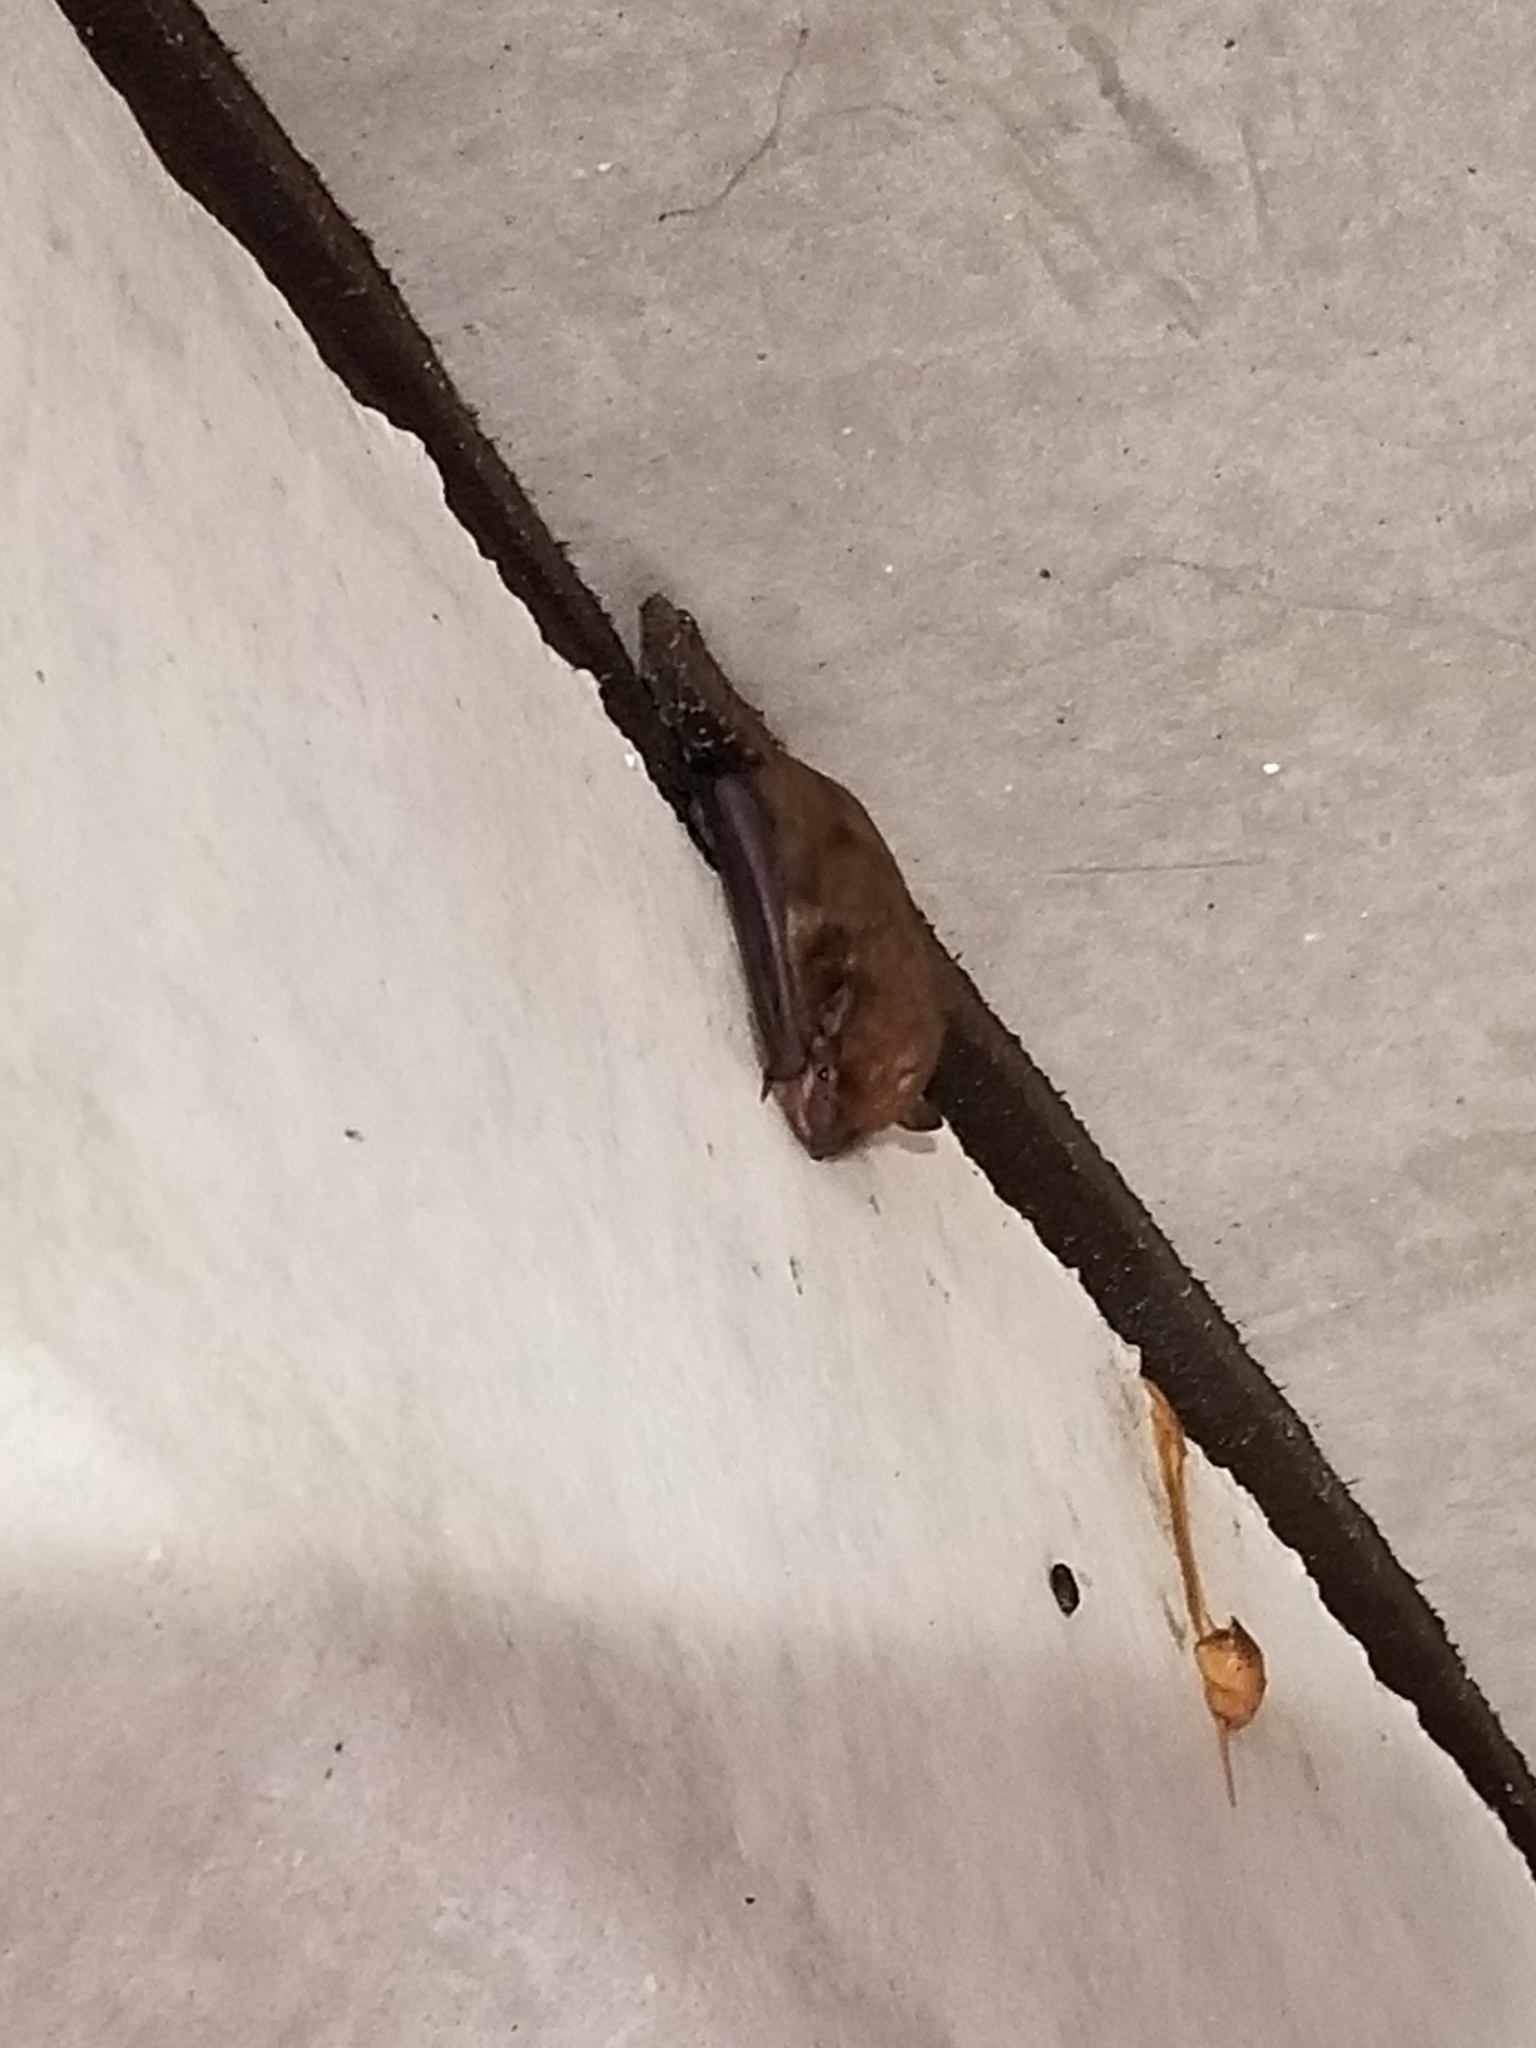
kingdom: Animalia
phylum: Chordata
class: Mammalia
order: Chiroptera
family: Vespertilionidae
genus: Eptesicus
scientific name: Eptesicus fuscus
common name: Big brown bat
